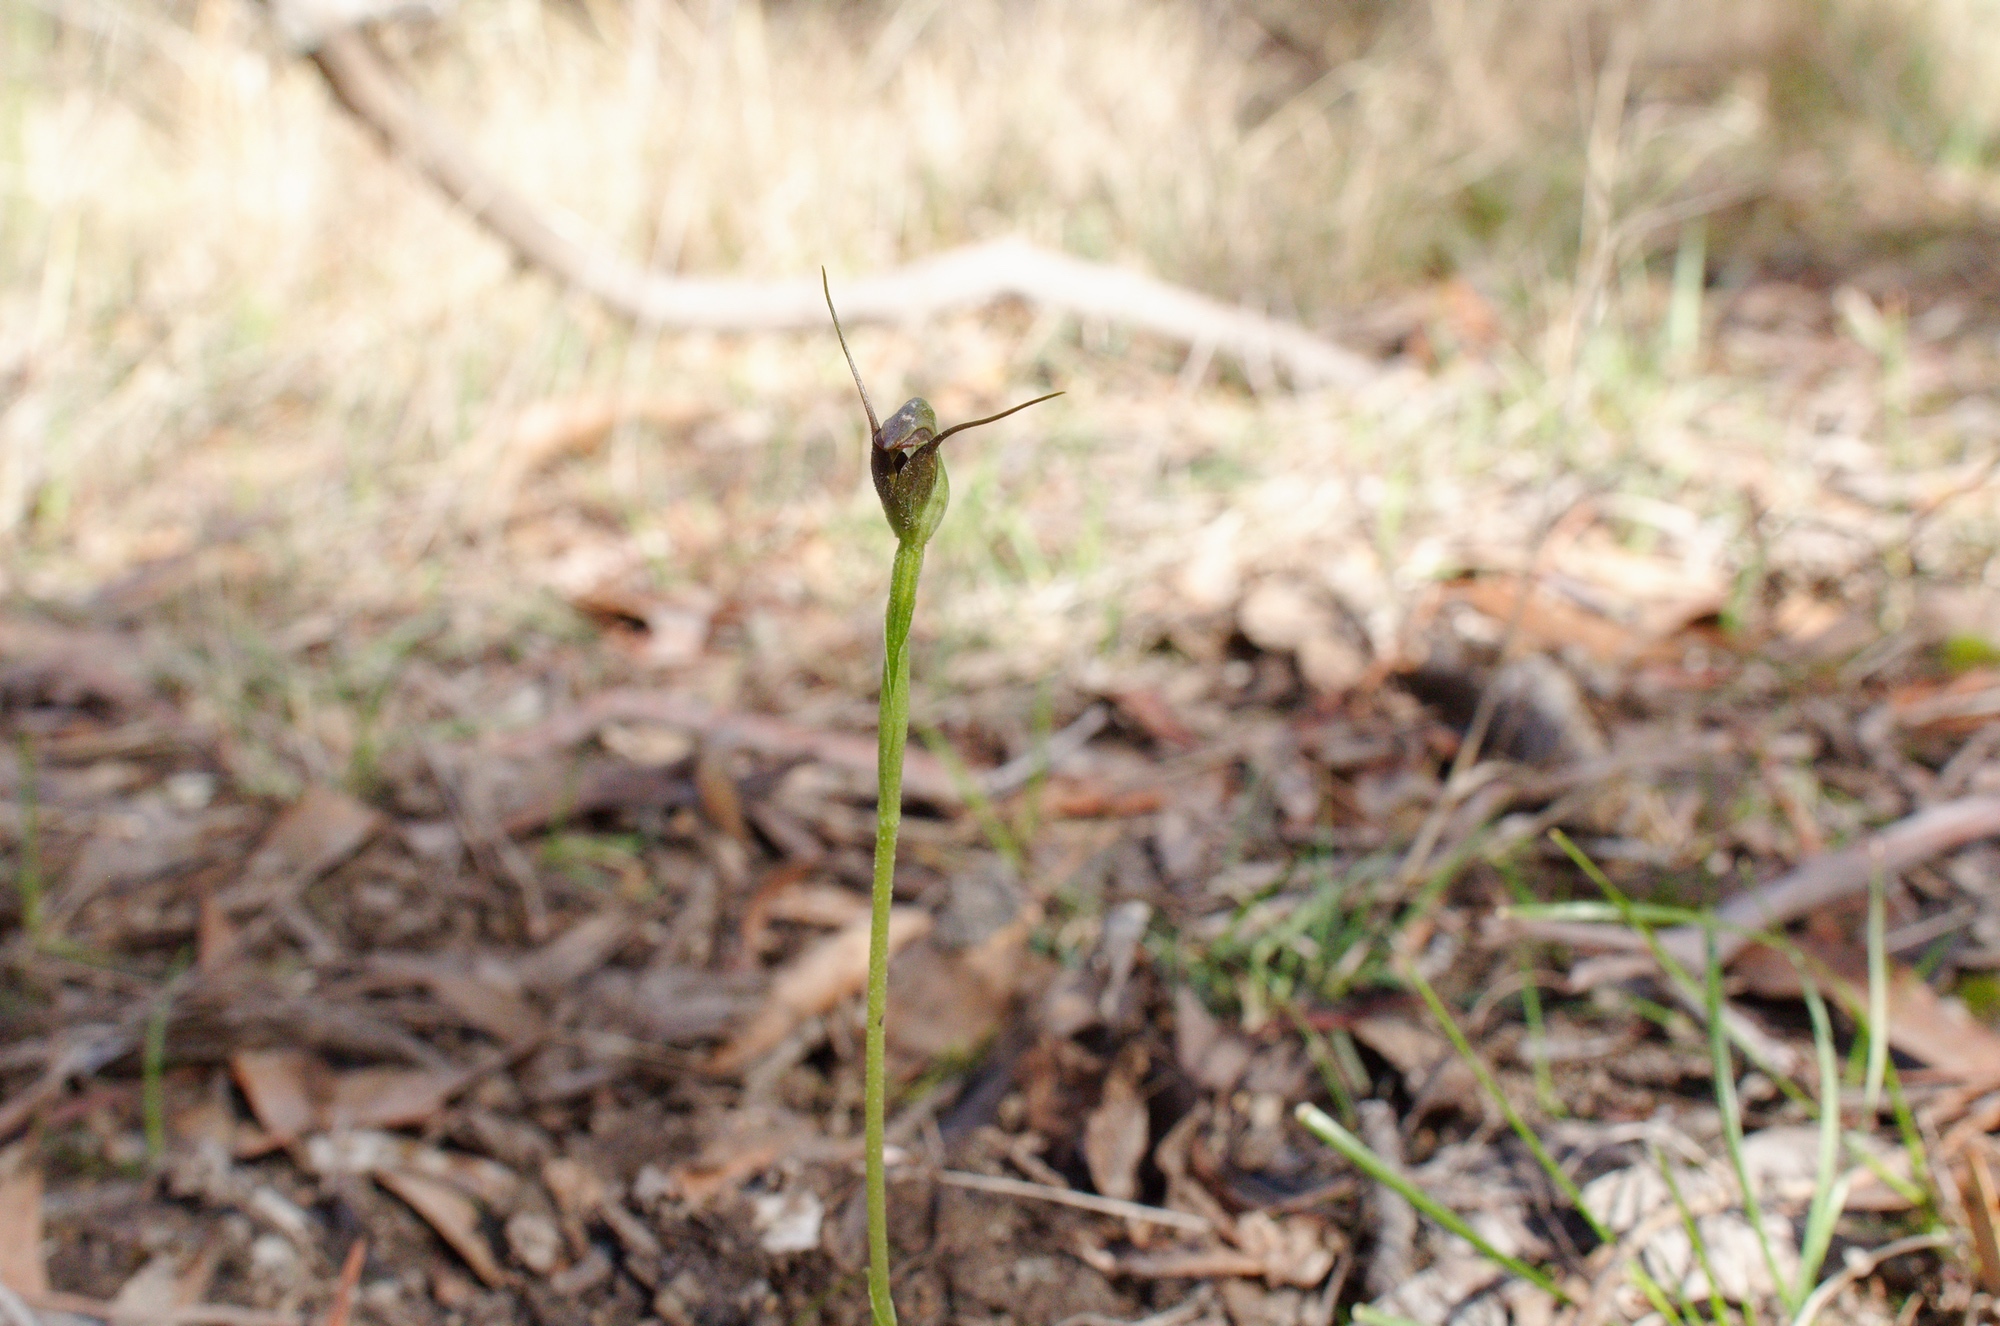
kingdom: Plantae
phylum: Tracheophyta
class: Liliopsida
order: Asparagales
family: Orchidaceae
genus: Pterostylis
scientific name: Pterostylis pedunculata
